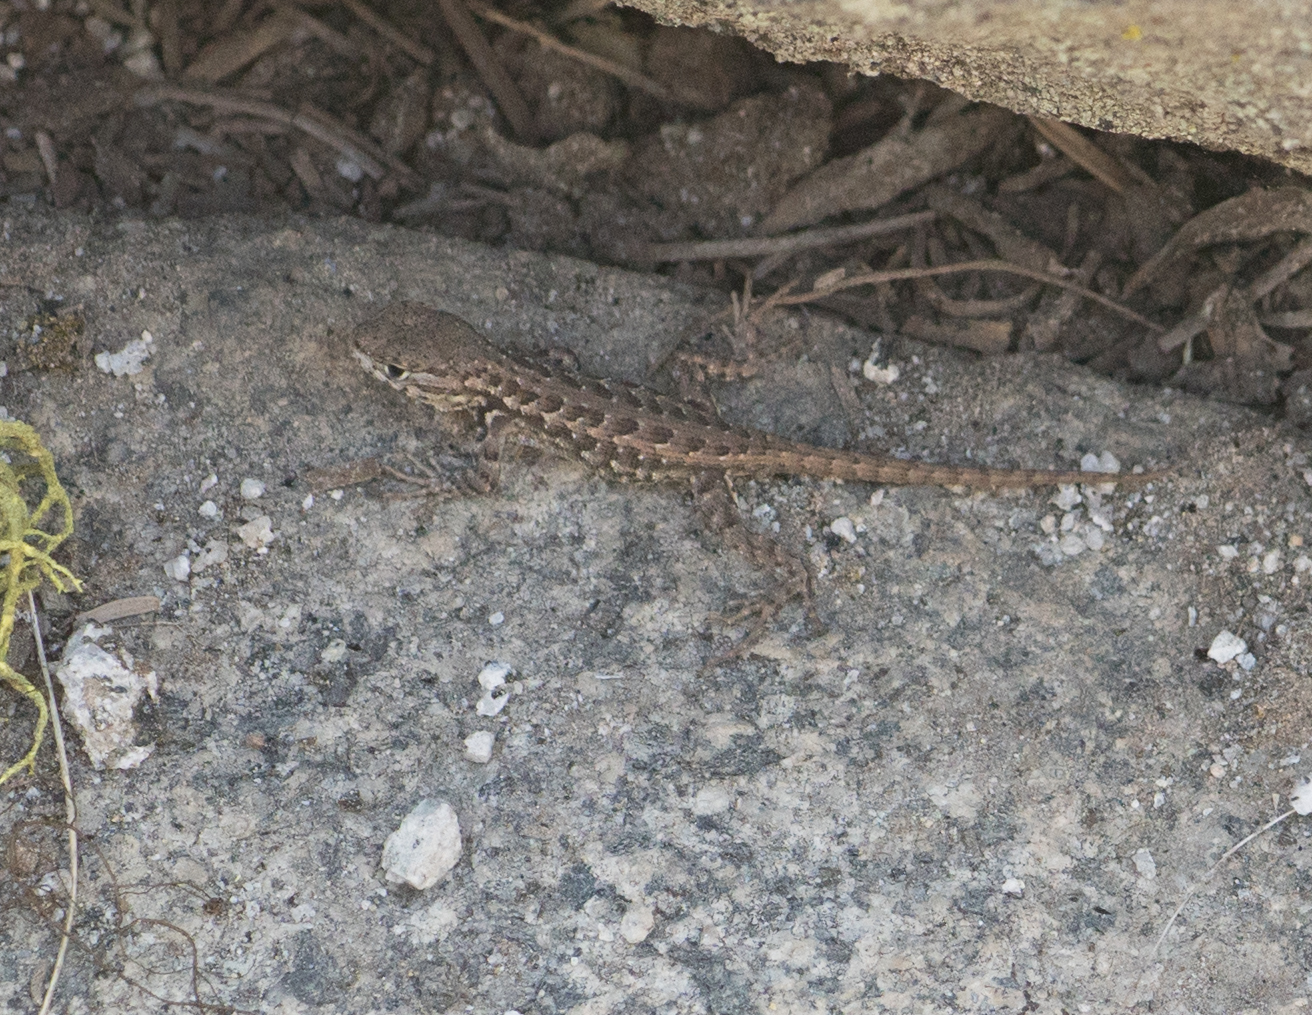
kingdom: Animalia
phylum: Chordata
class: Squamata
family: Phrynosomatidae
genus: Sceloporus
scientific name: Sceloporus graciosus
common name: Sagebrush lizard
